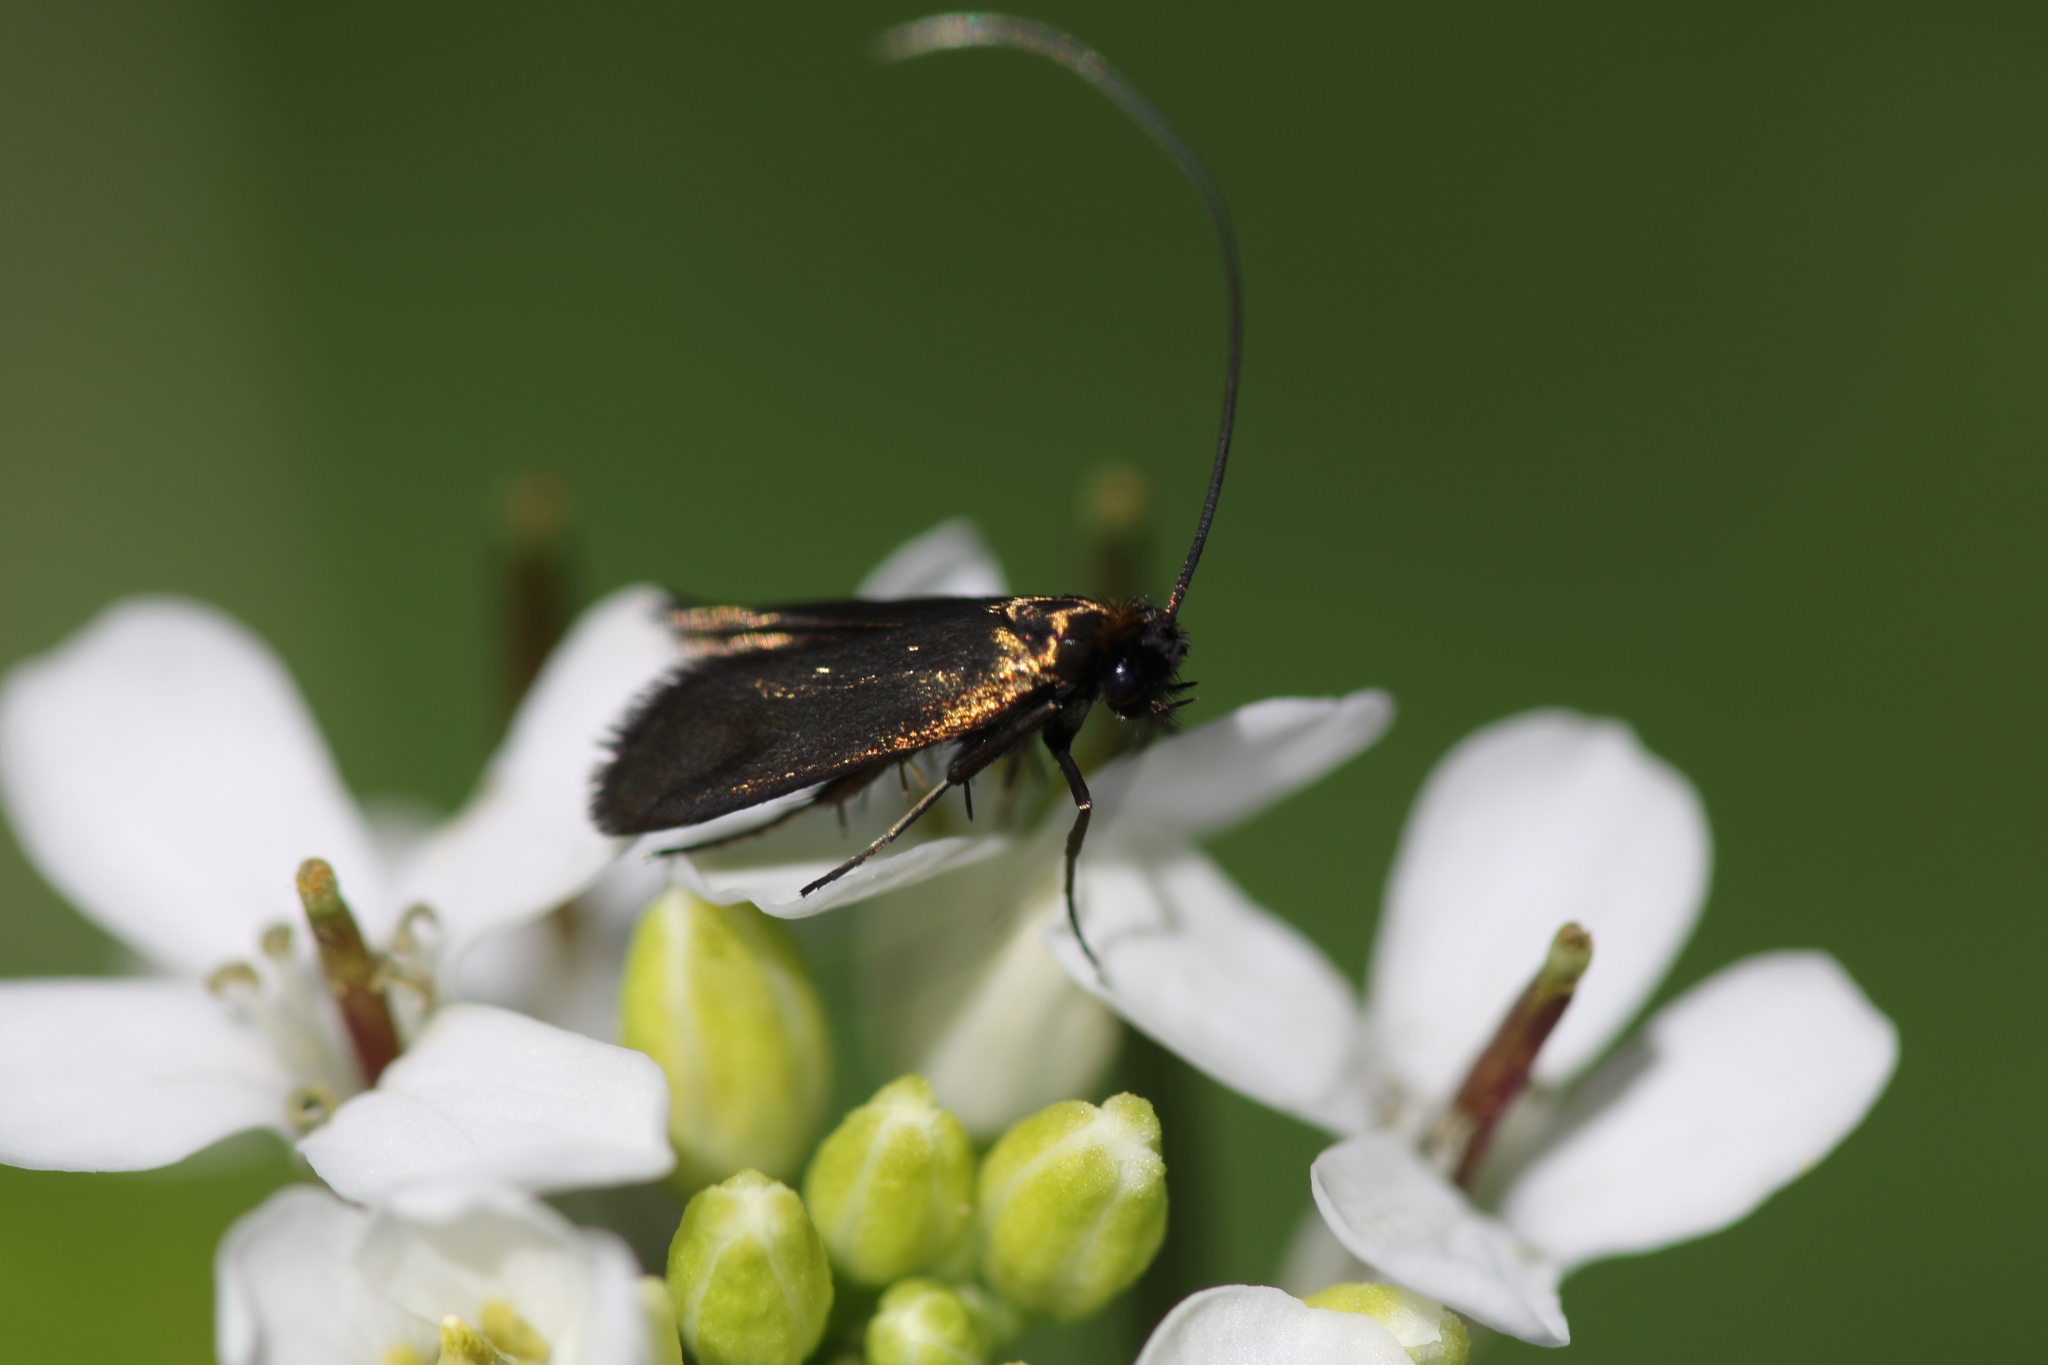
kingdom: Animalia
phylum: Arthropoda
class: Insecta
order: Lepidoptera
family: Adelidae
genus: Cauchas
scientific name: Cauchas rufimitrella
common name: Meadow long-horn
